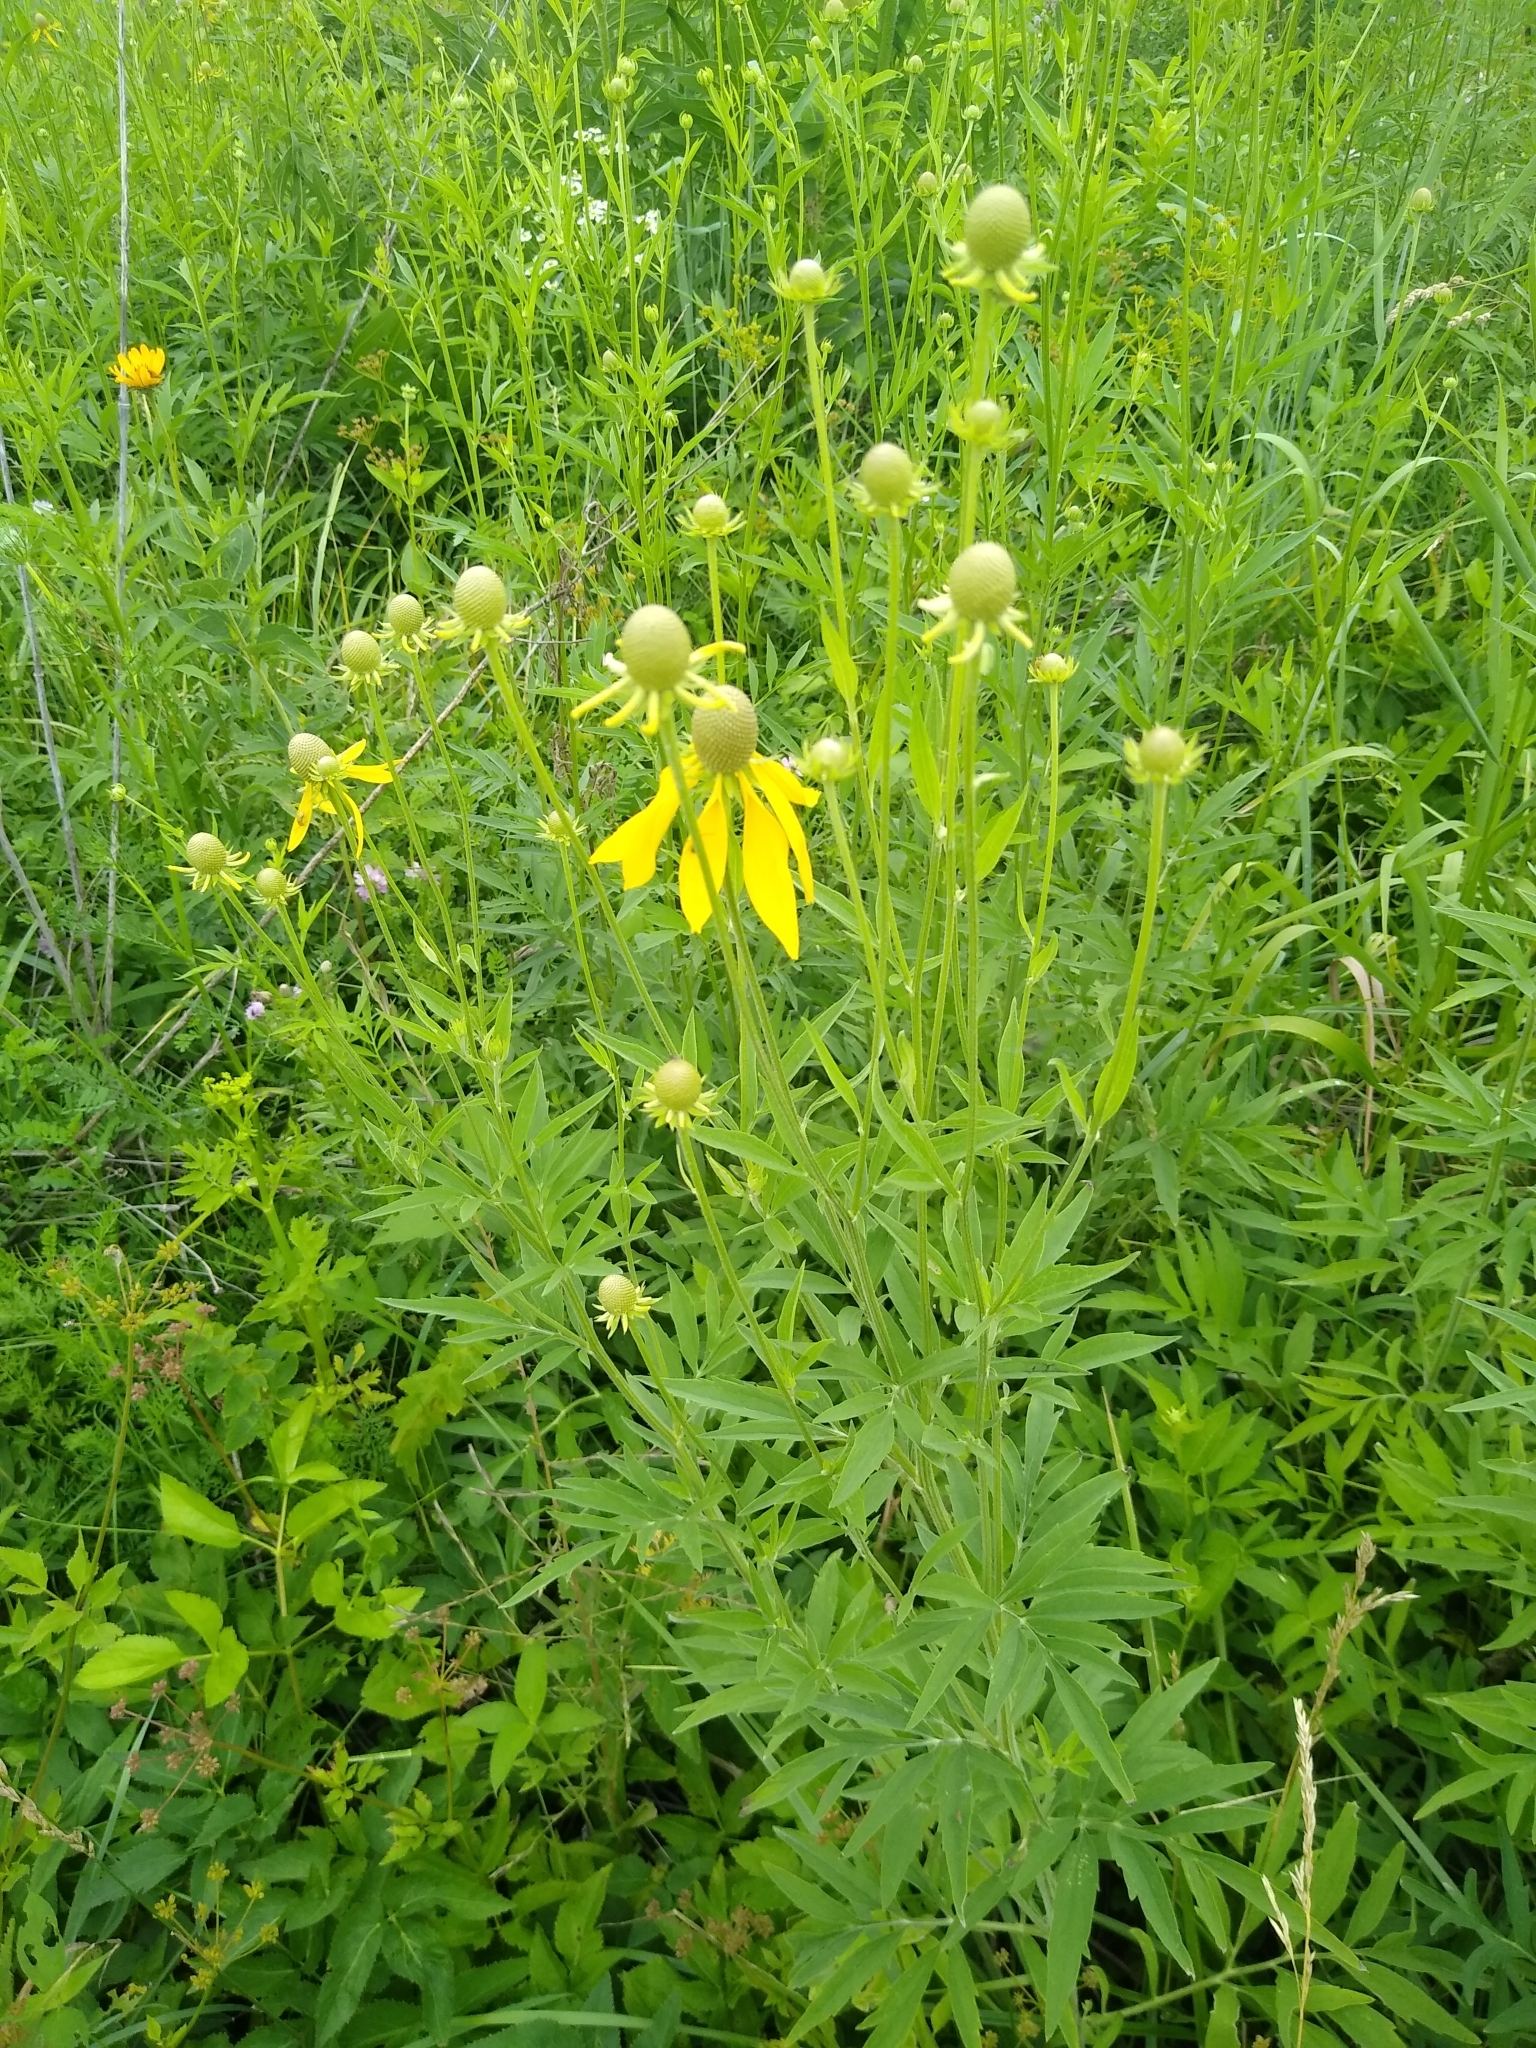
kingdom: Plantae
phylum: Tracheophyta
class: Magnoliopsida
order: Asterales
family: Asteraceae
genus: Ratibida
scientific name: Ratibida pinnata
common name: Drooping prairie-coneflower
